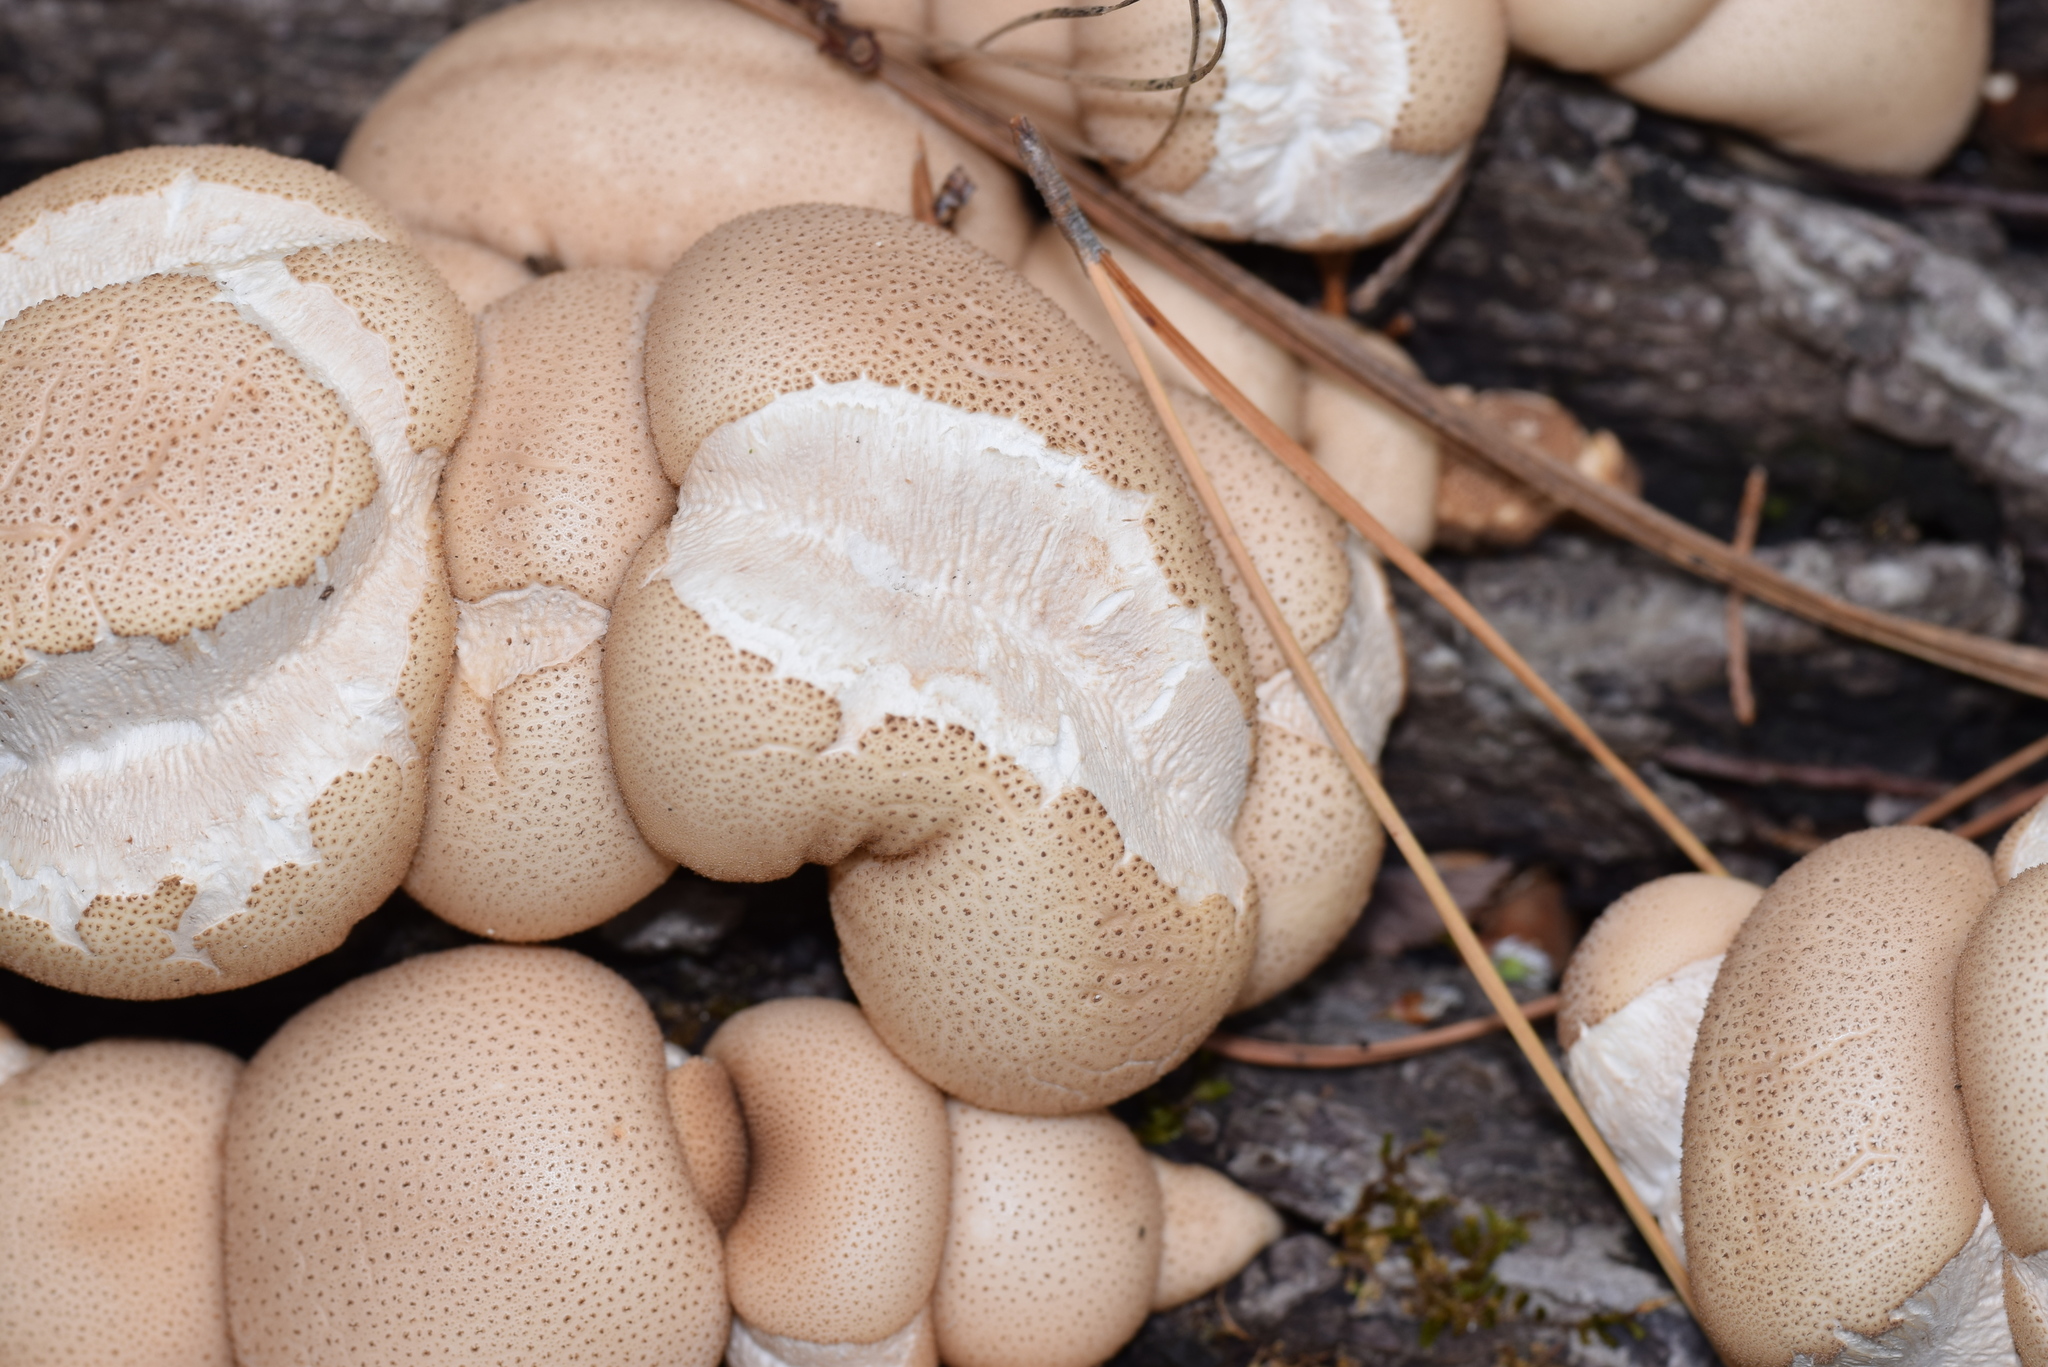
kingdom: Fungi
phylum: Basidiomycota
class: Agaricomycetes
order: Agaricales
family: Lycoperdaceae
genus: Apioperdon
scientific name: Apioperdon pyriforme
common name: Pear-shaped puffball
